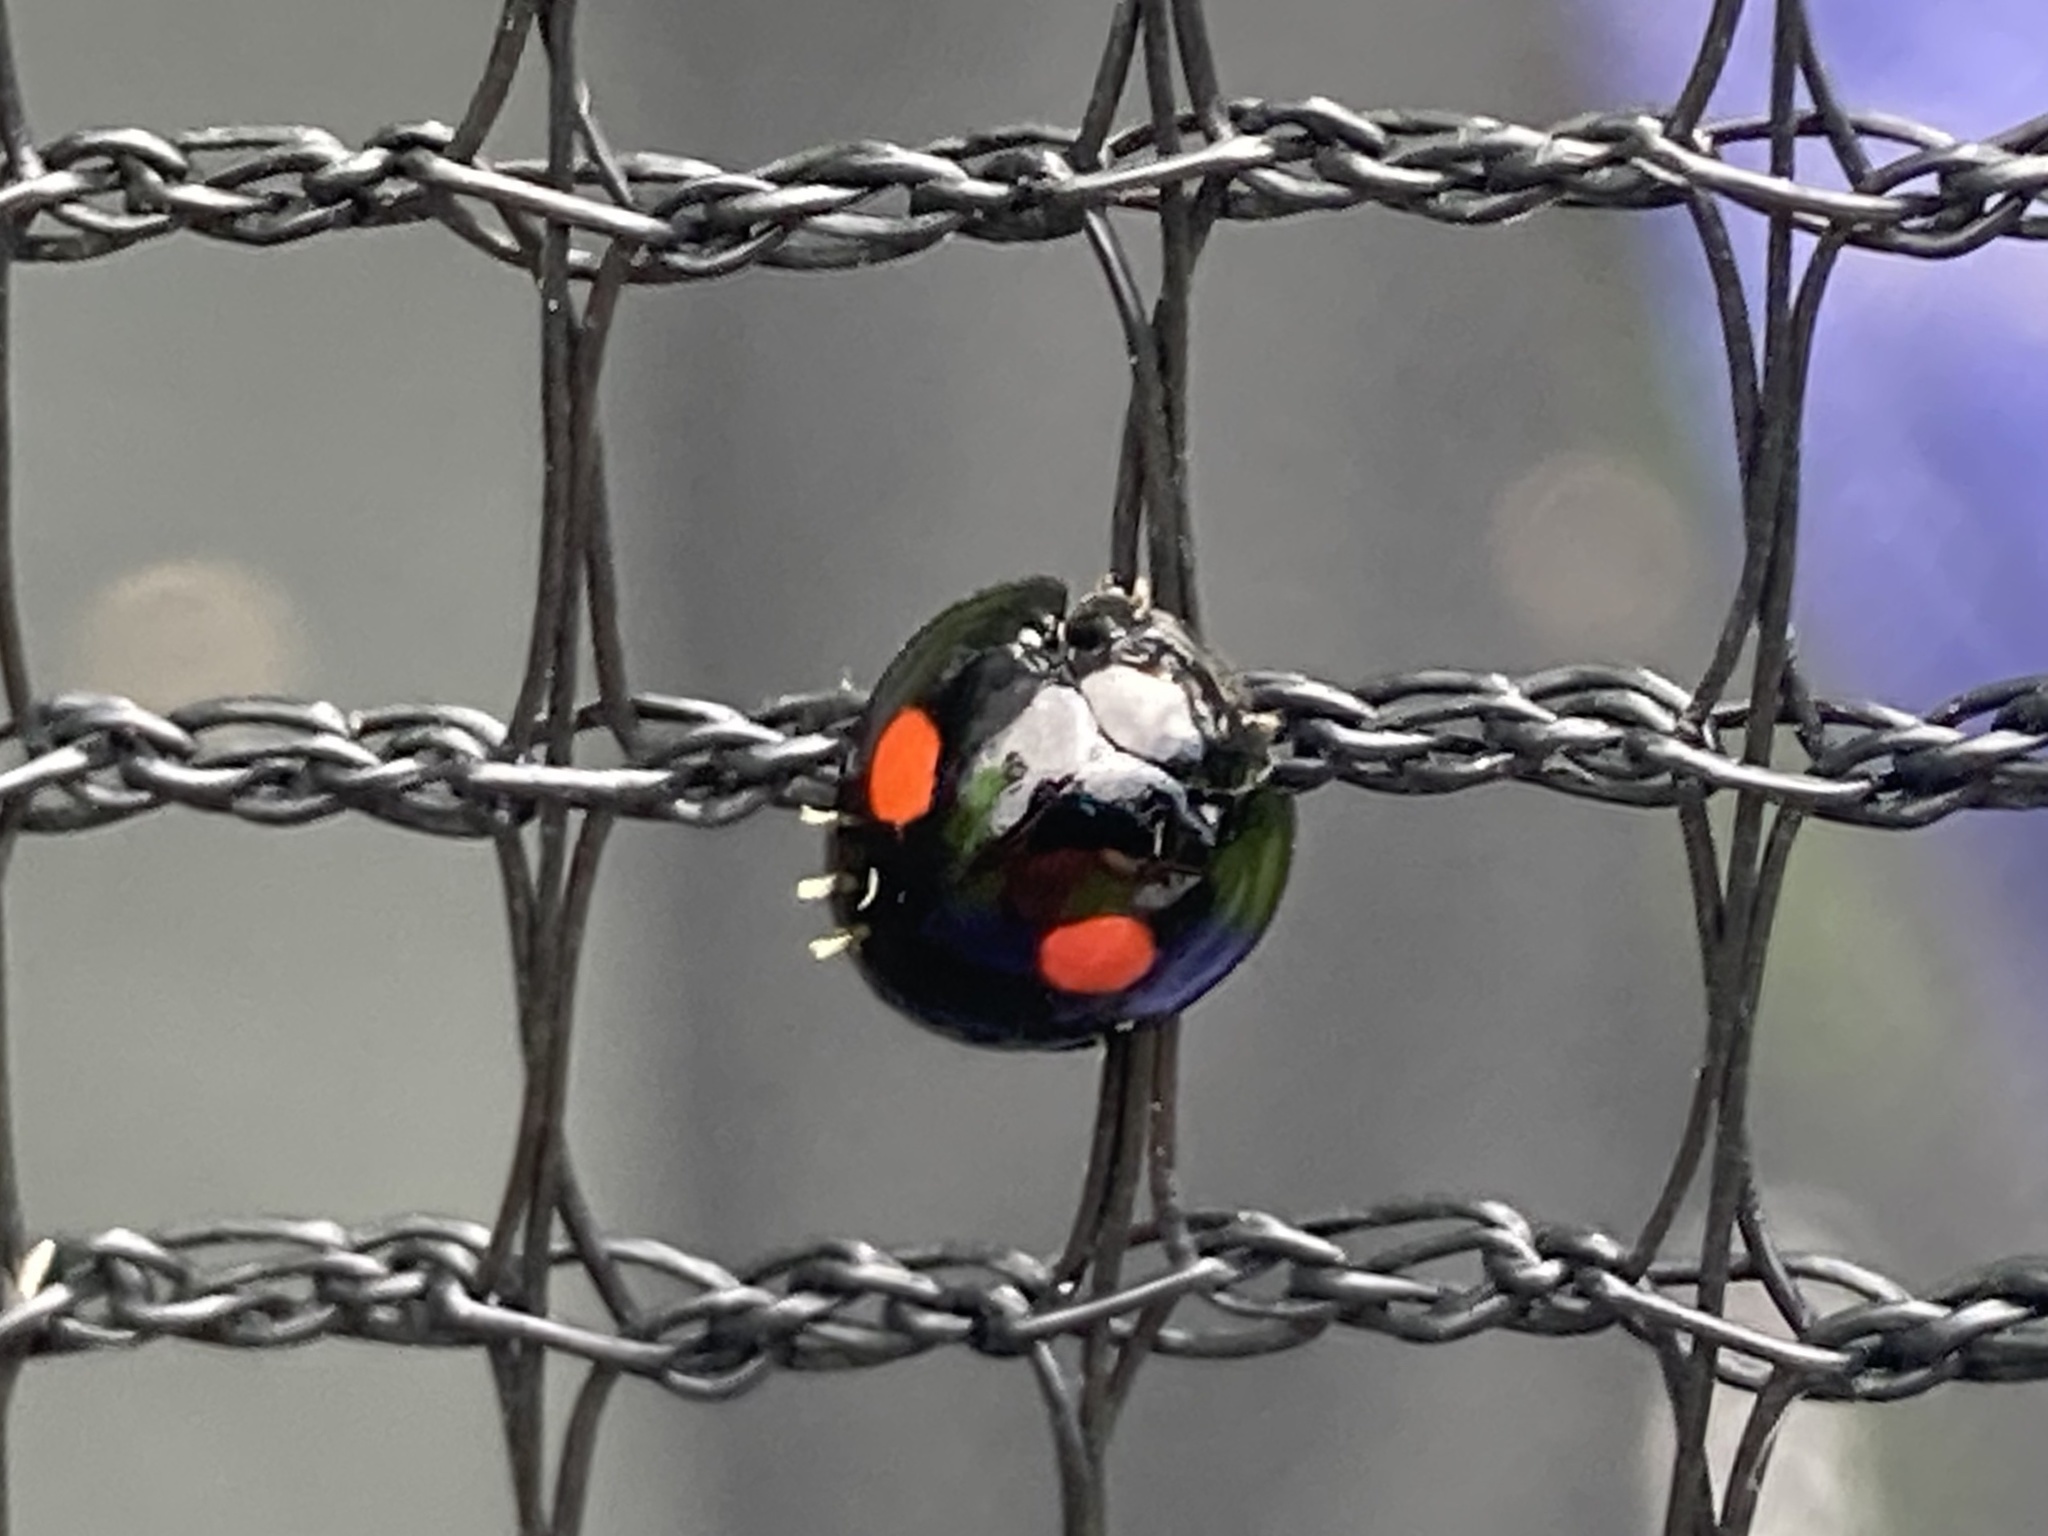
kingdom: Animalia
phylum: Arthropoda
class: Insecta
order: Coleoptera
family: Coccinellidae
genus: Chilocorus
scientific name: Chilocorus stigma
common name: Twicestabbed lady beetle
